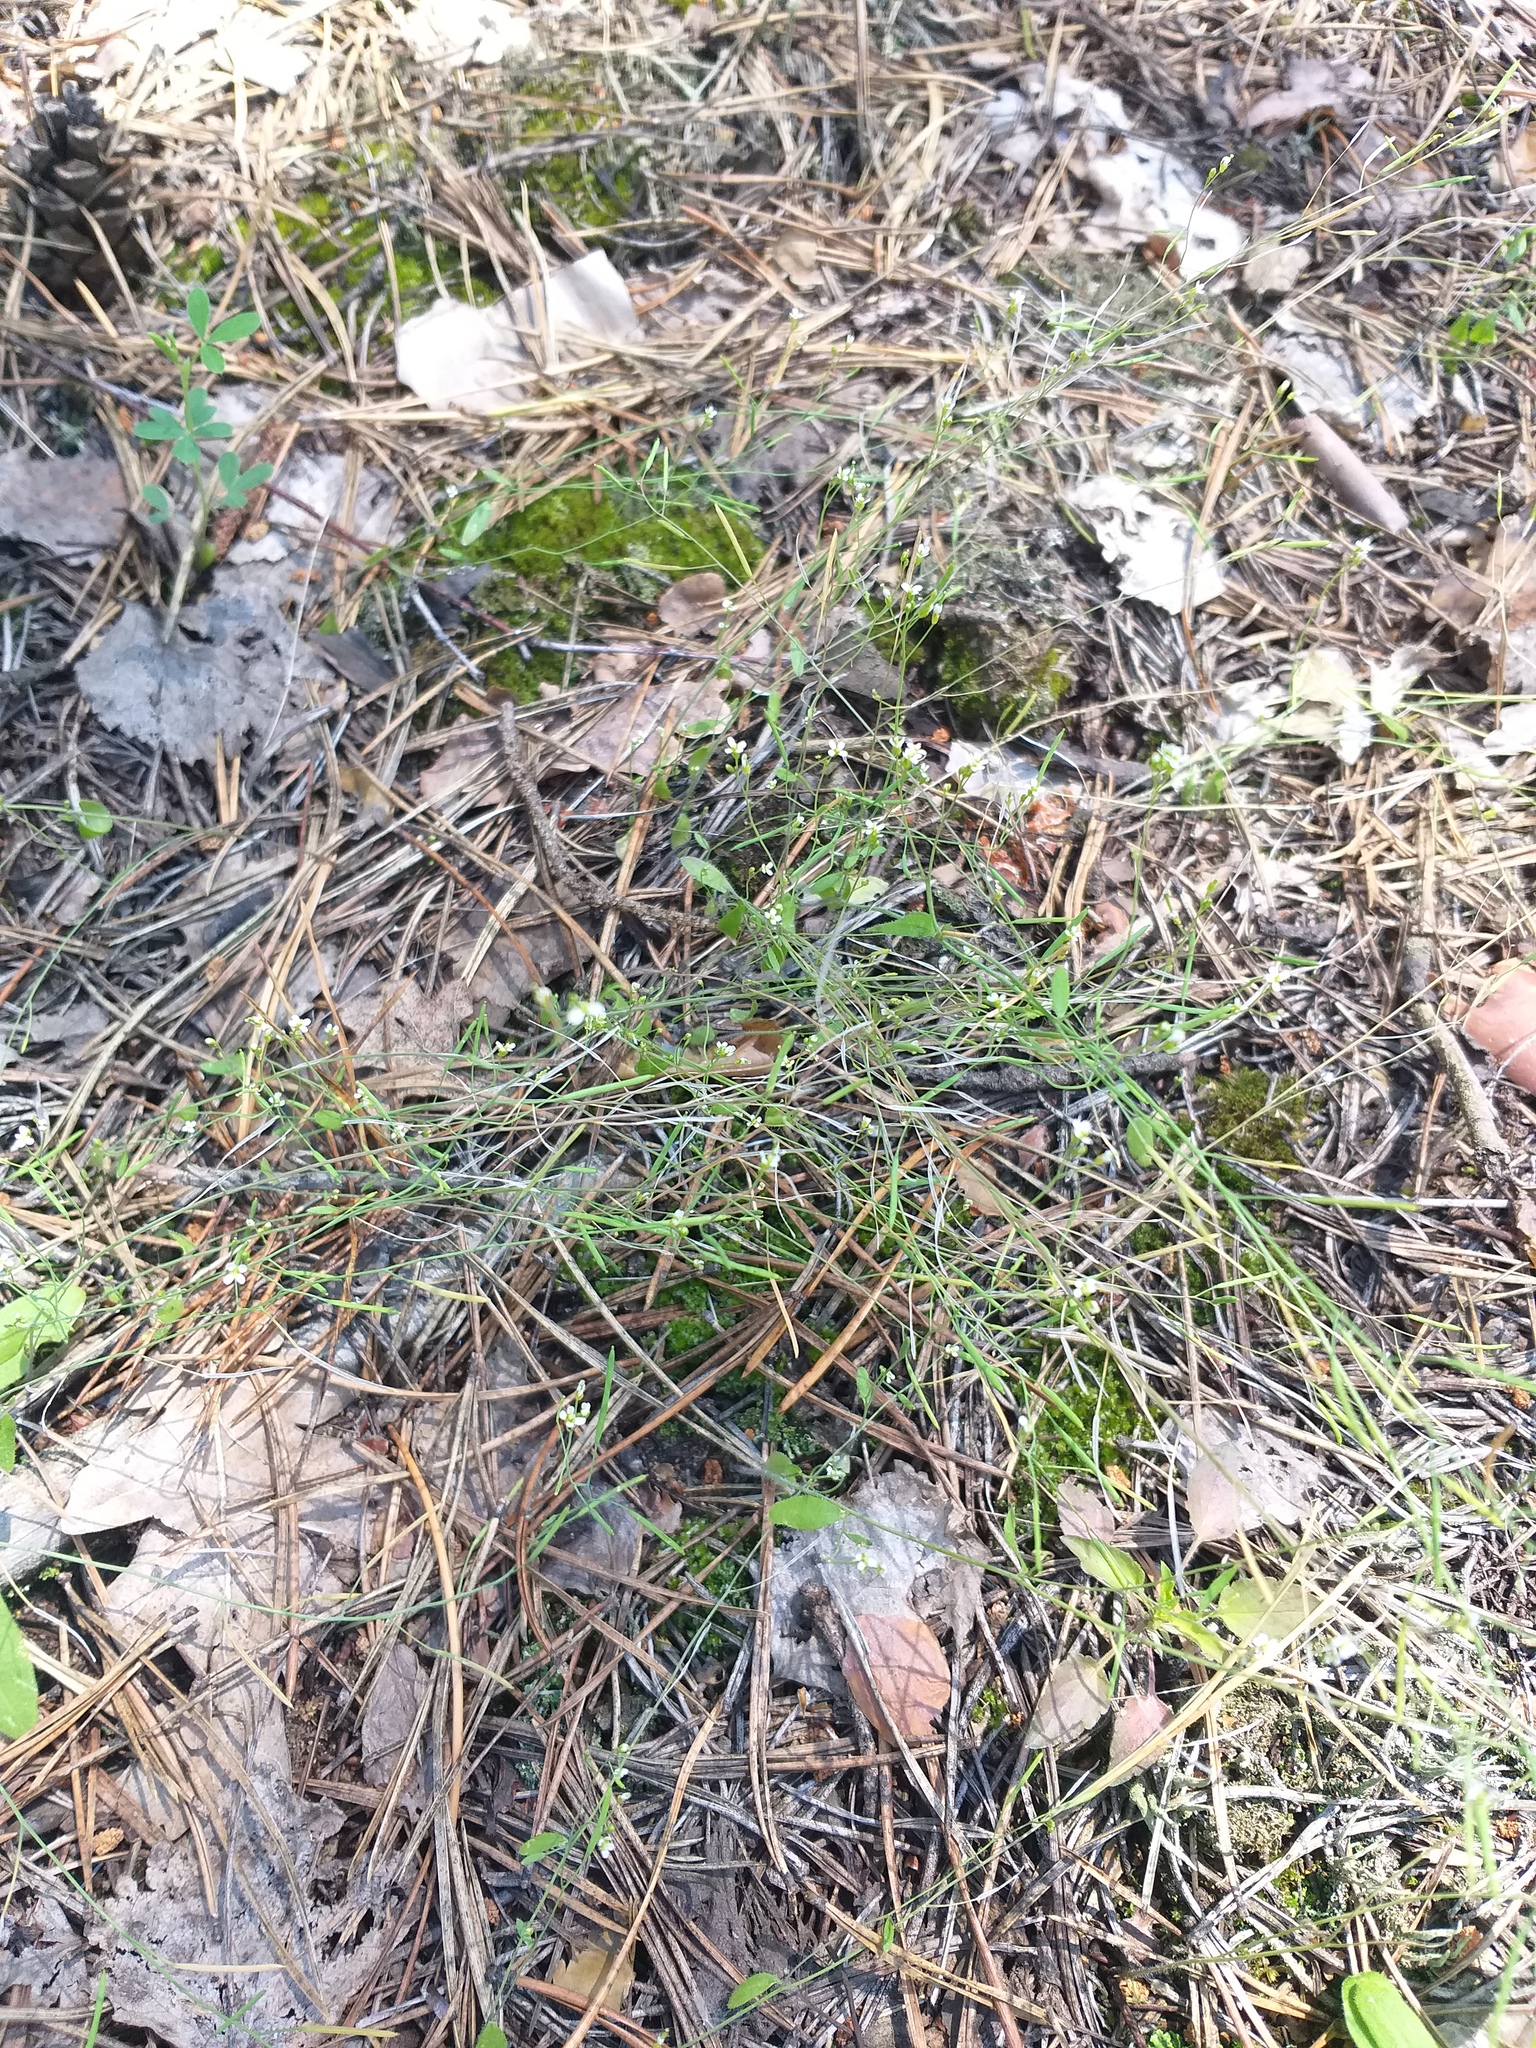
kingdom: Plantae
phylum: Tracheophyta
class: Magnoliopsida
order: Brassicales
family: Brassicaceae
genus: Arabidopsis
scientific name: Arabidopsis thaliana
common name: Thale cress
